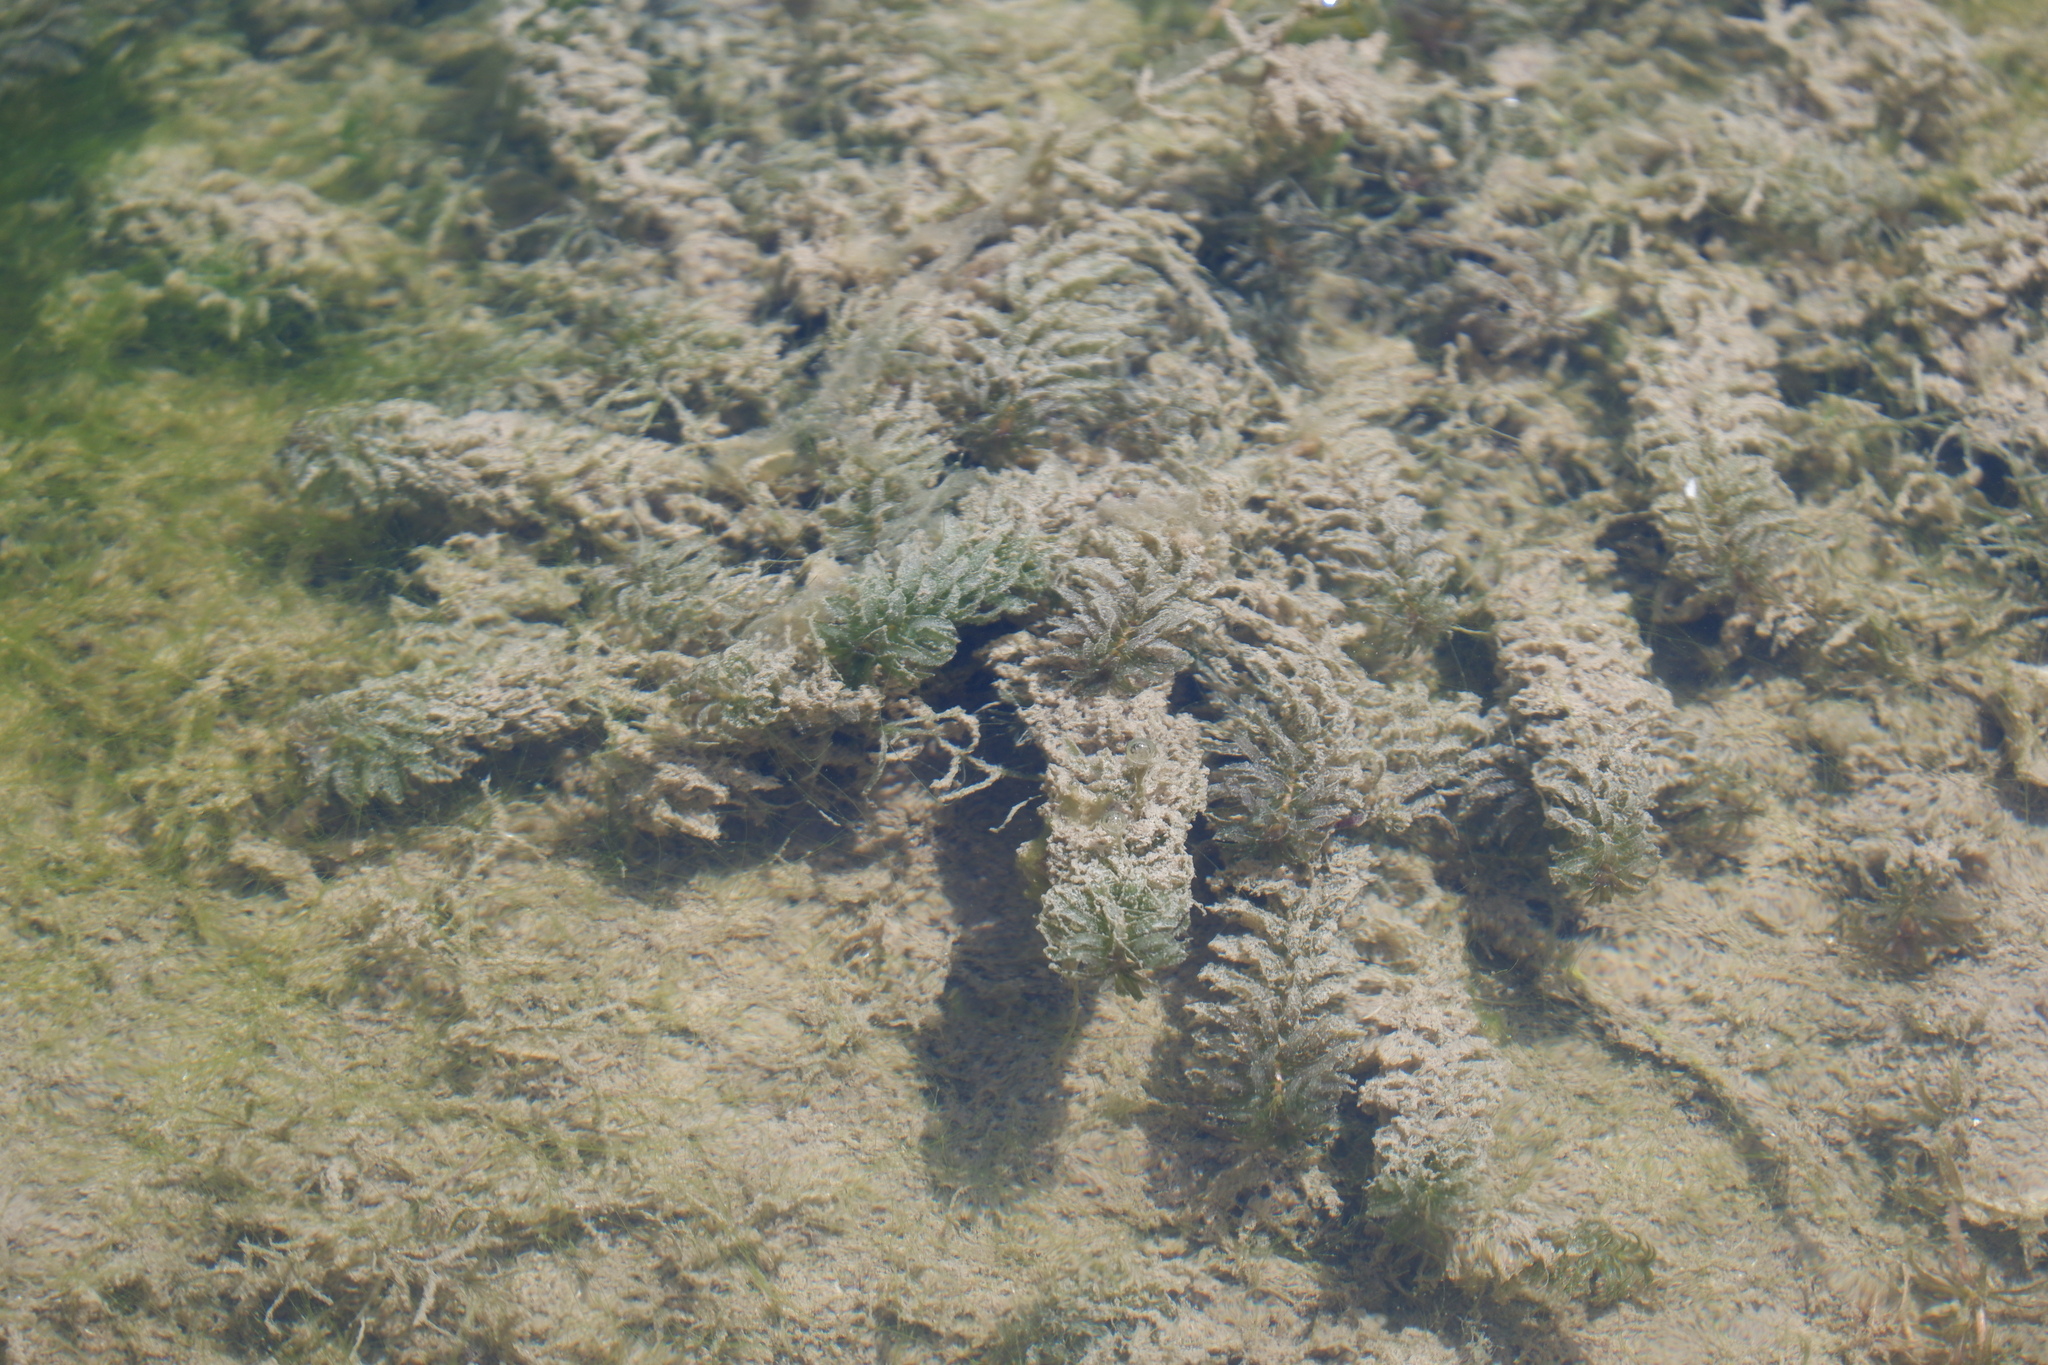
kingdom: Plantae
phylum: Tracheophyta
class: Liliopsida
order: Alismatales
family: Hydrocharitaceae
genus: Hydrilla
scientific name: Hydrilla verticillata
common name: Florida-elodea
